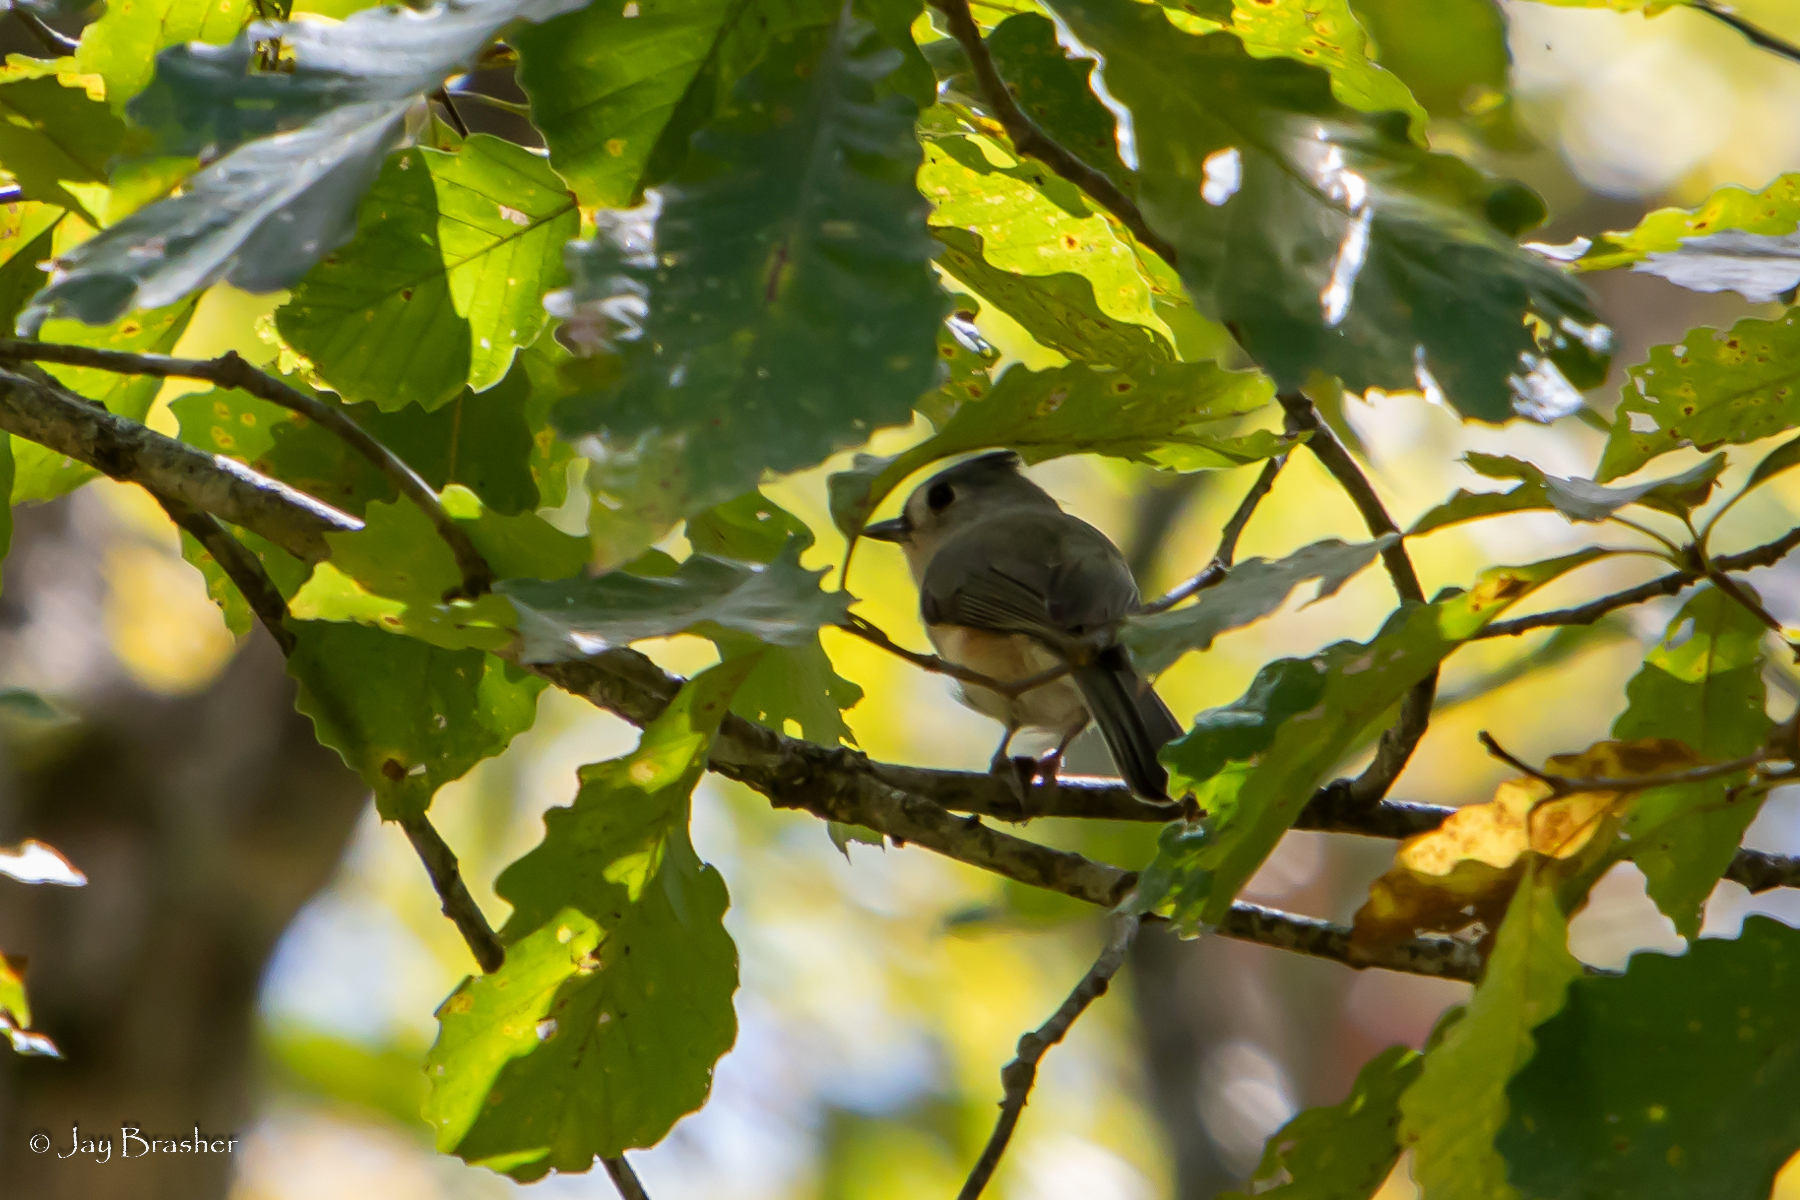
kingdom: Animalia
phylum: Chordata
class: Aves
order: Passeriformes
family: Paridae
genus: Baeolophus
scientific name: Baeolophus bicolor
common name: Tufted titmouse
